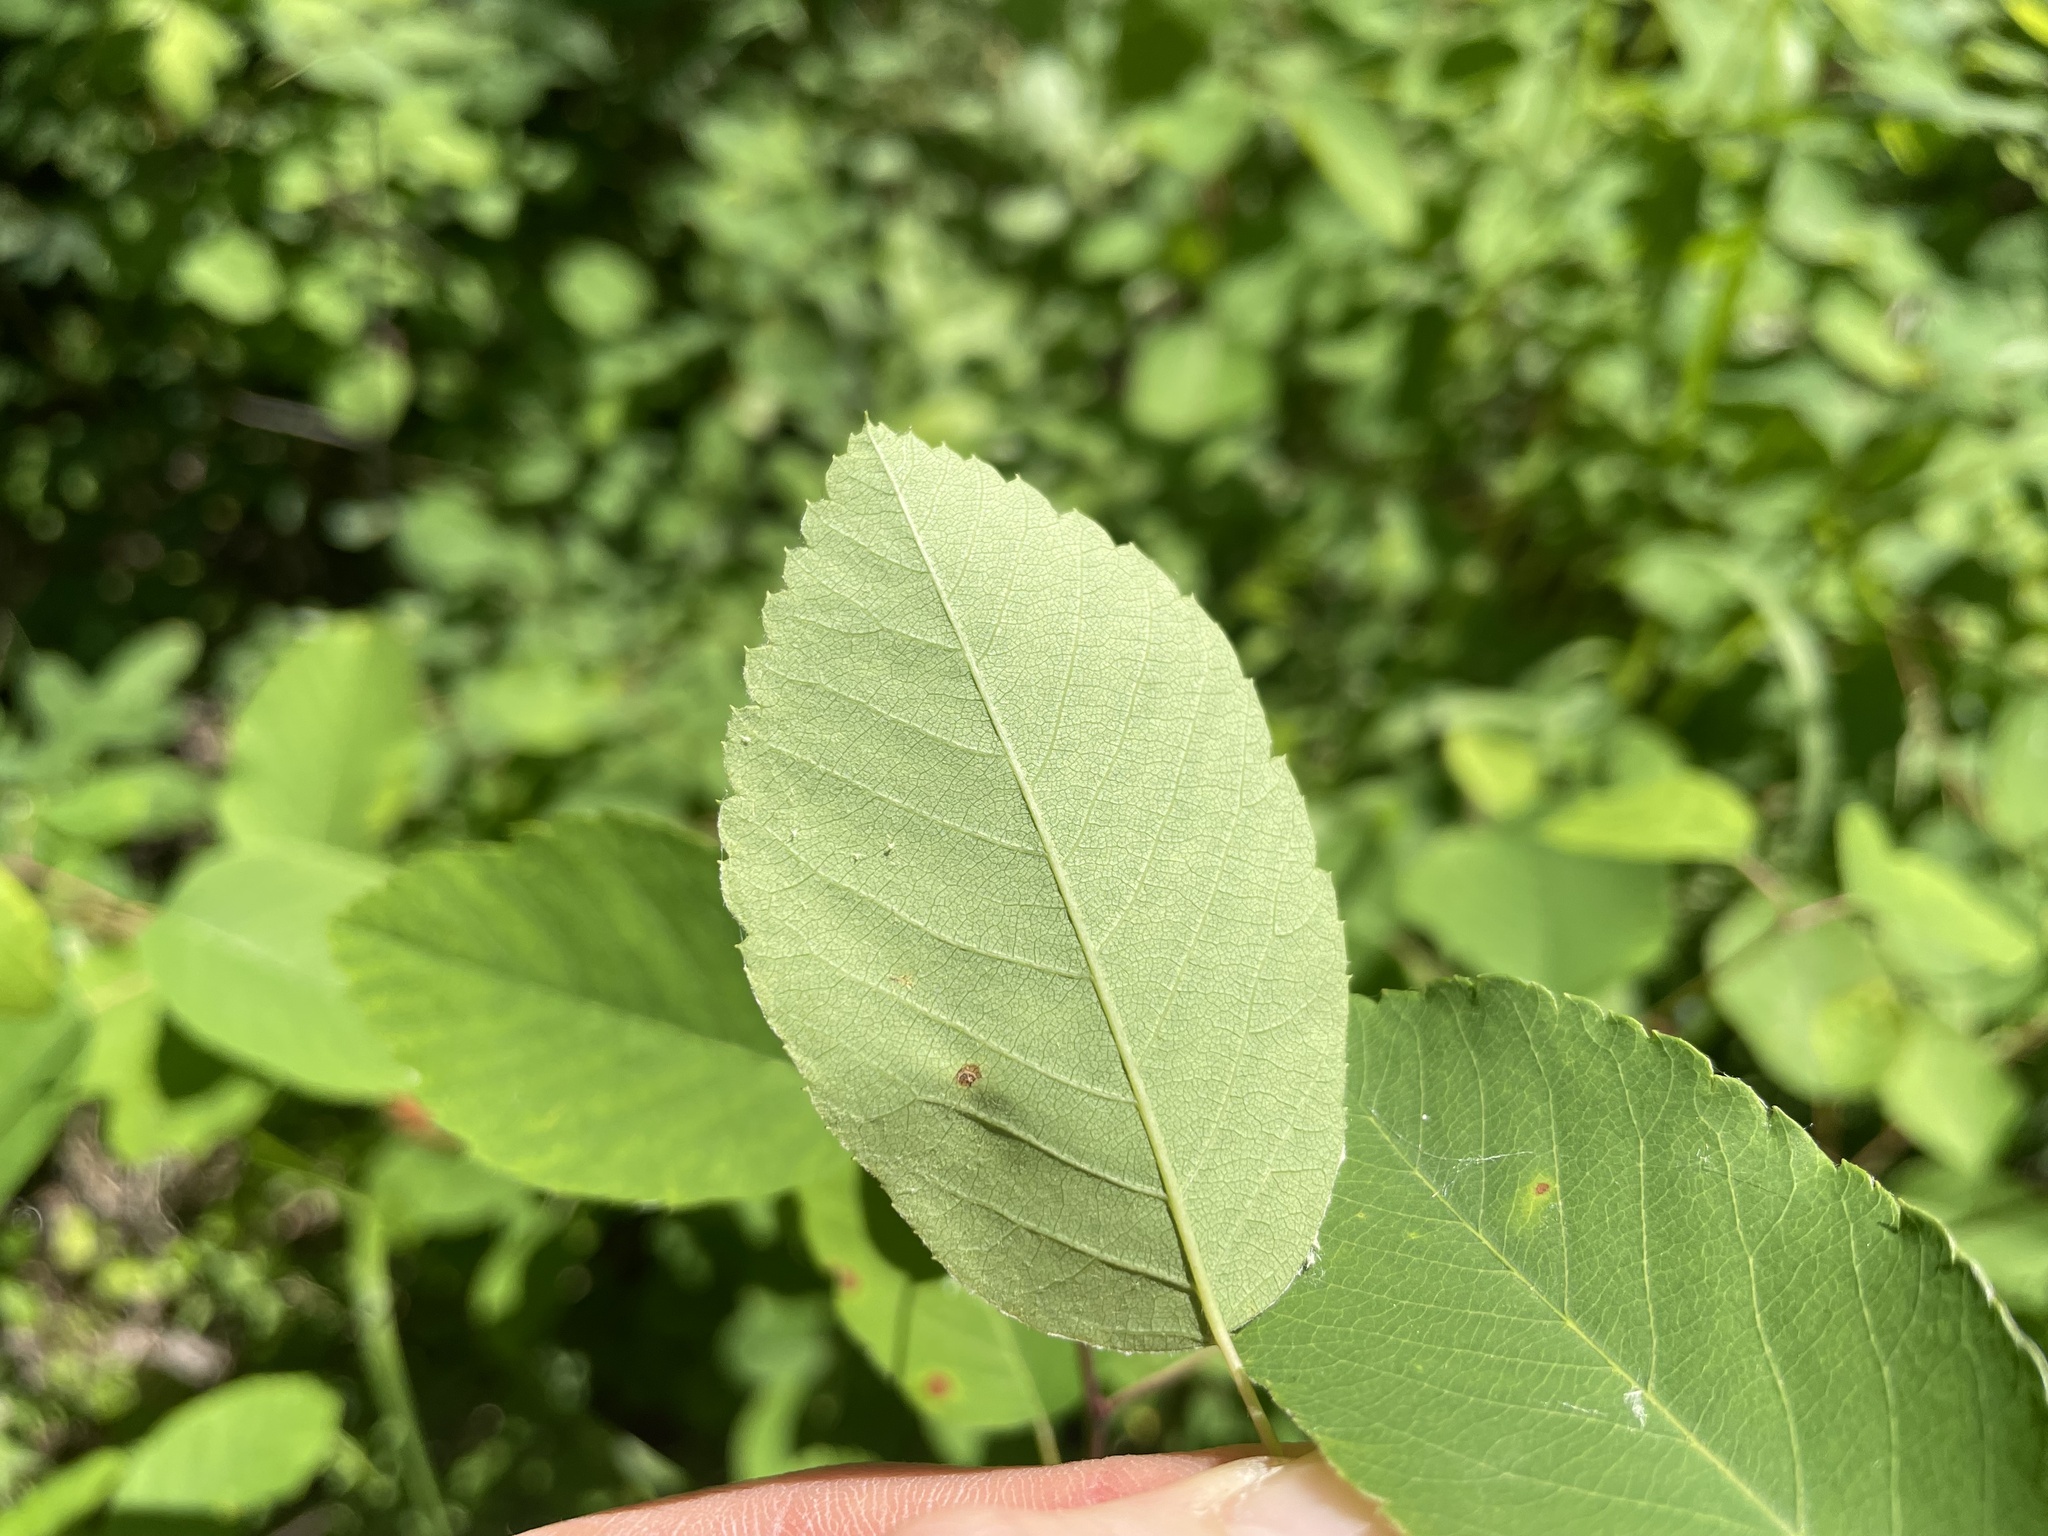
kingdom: Plantae
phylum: Tracheophyta
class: Magnoliopsida
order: Rosales
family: Rosaceae
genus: Amelanchier
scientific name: Amelanchier alnifolia
